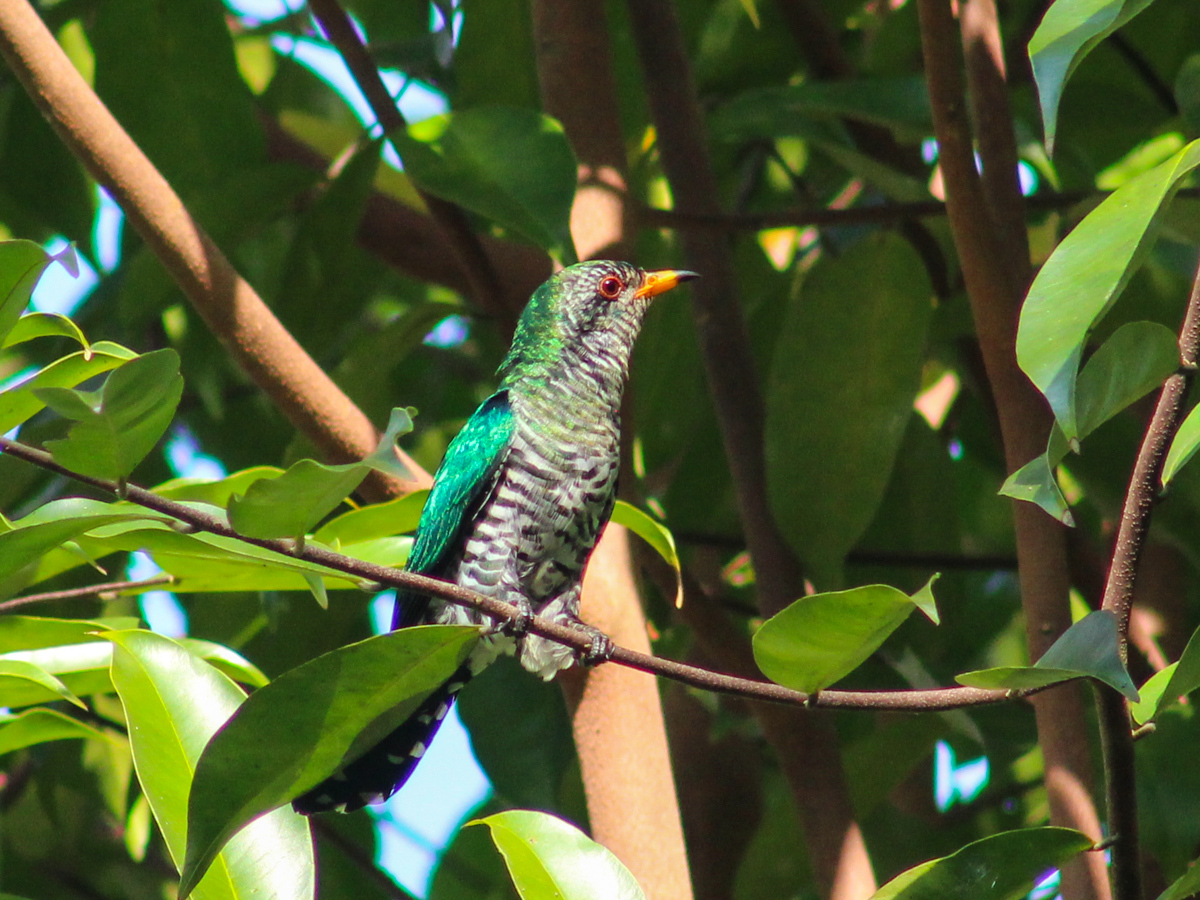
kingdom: Animalia
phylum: Chordata
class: Aves
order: Cuculiformes
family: Cuculidae
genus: Chrysococcyx
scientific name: Chrysococcyx maculatus
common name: Asian emerald cuckoo
